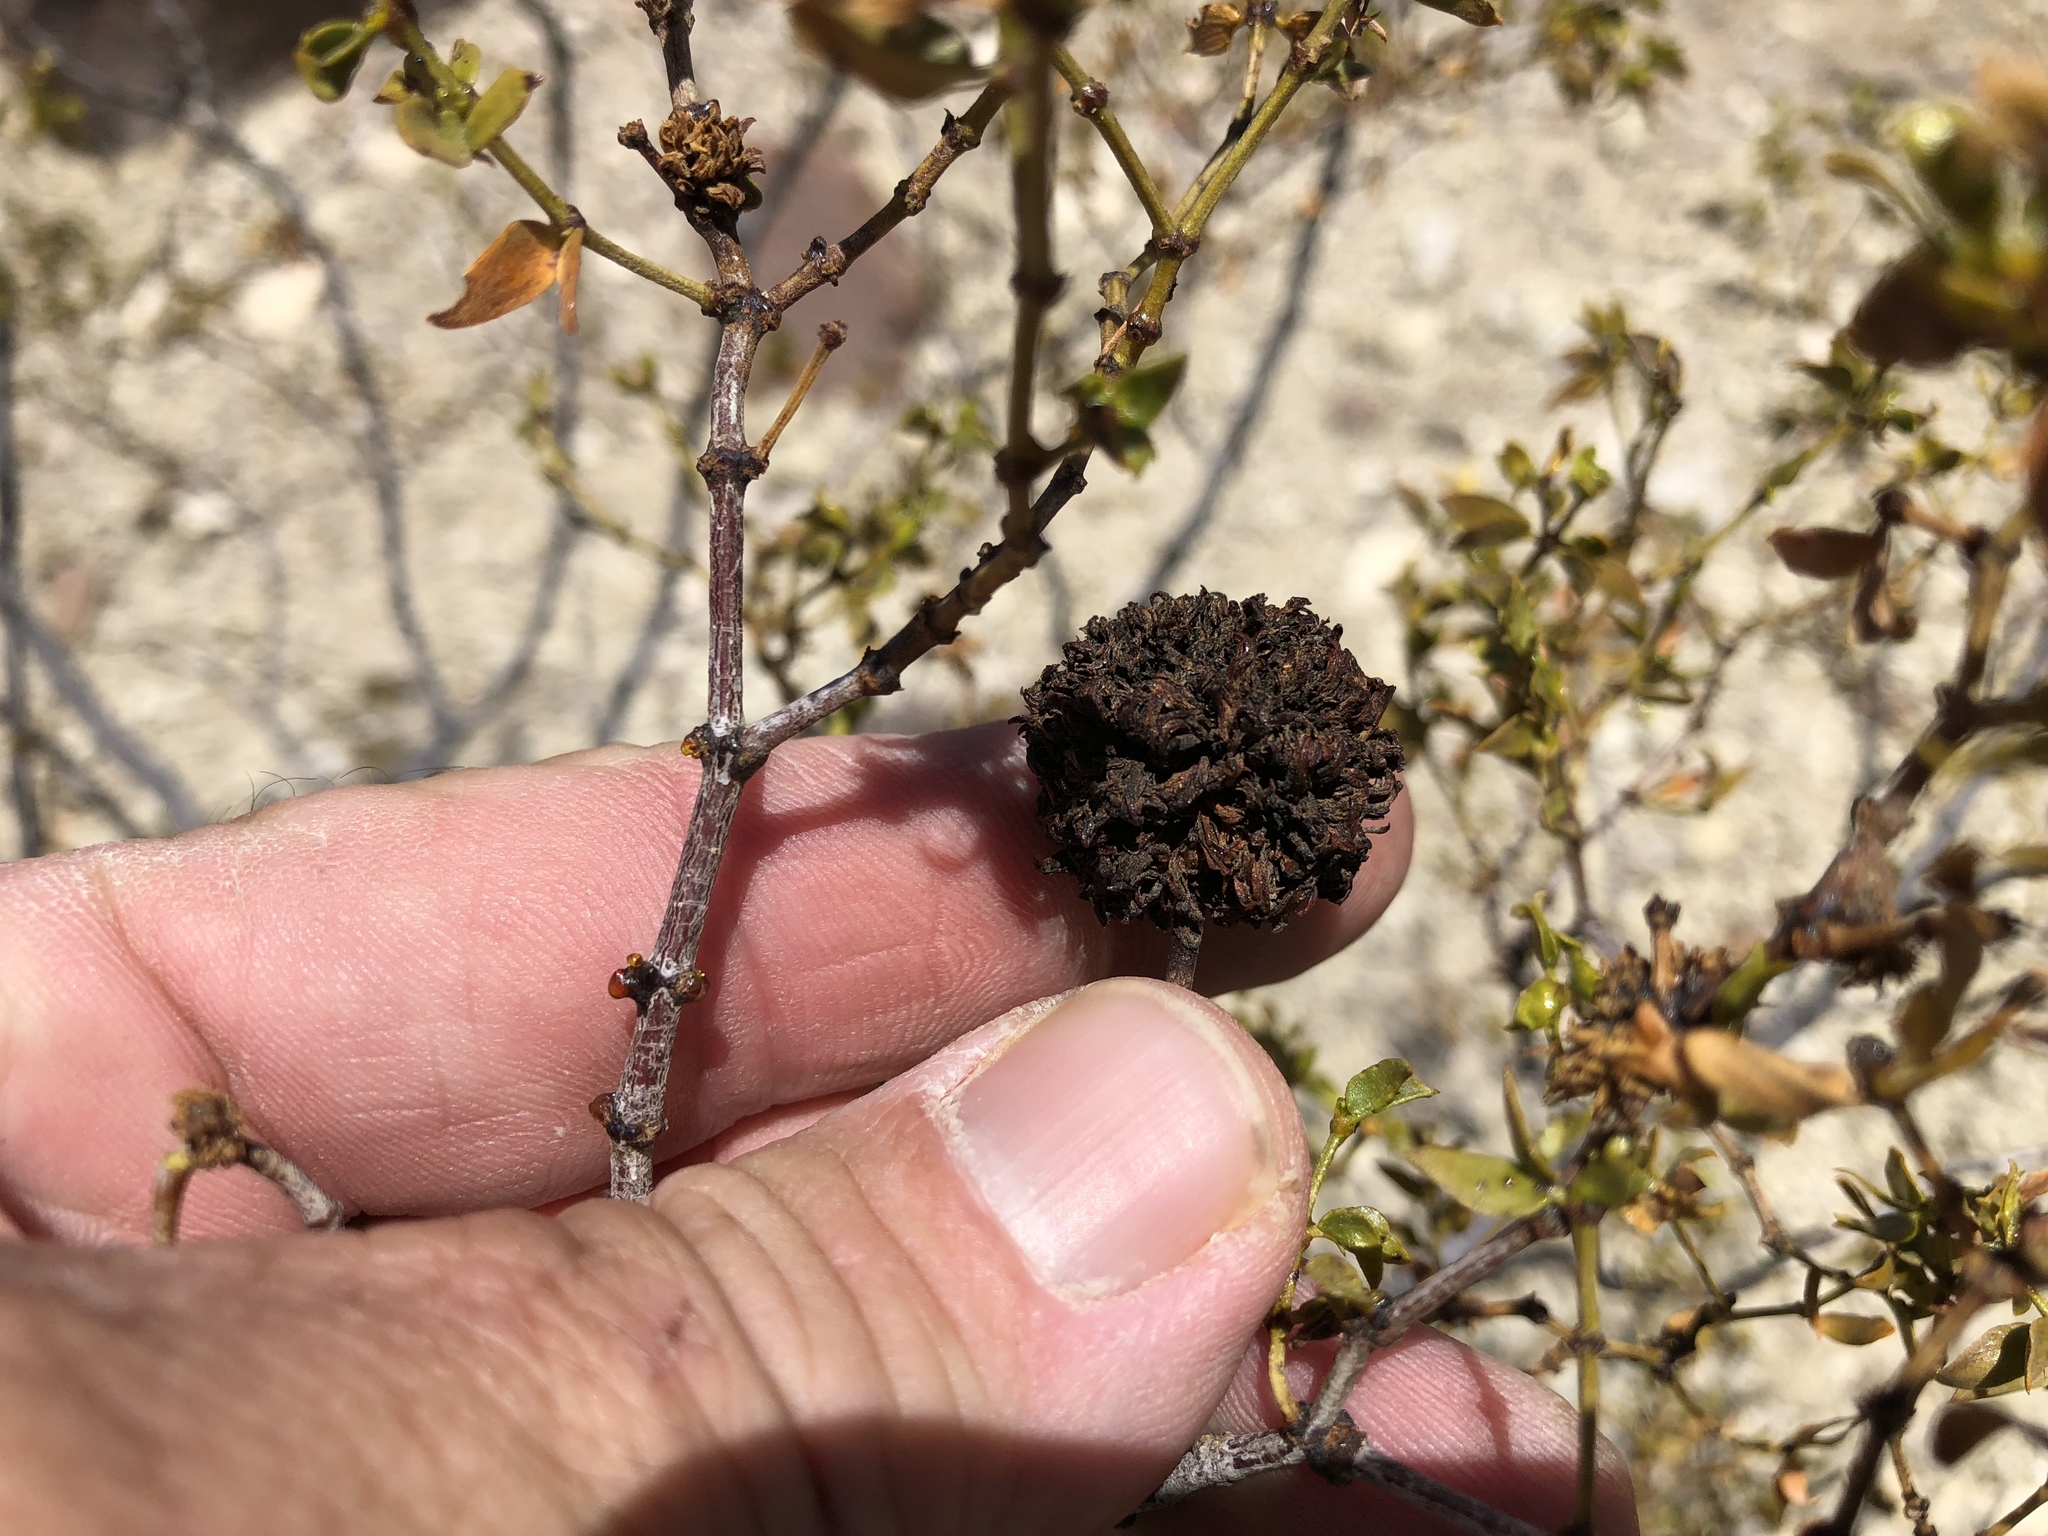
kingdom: Animalia
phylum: Arthropoda
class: Insecta
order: Diptera
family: Cecidomyiidae
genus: Asphondylia
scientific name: Asphondylia auripila
